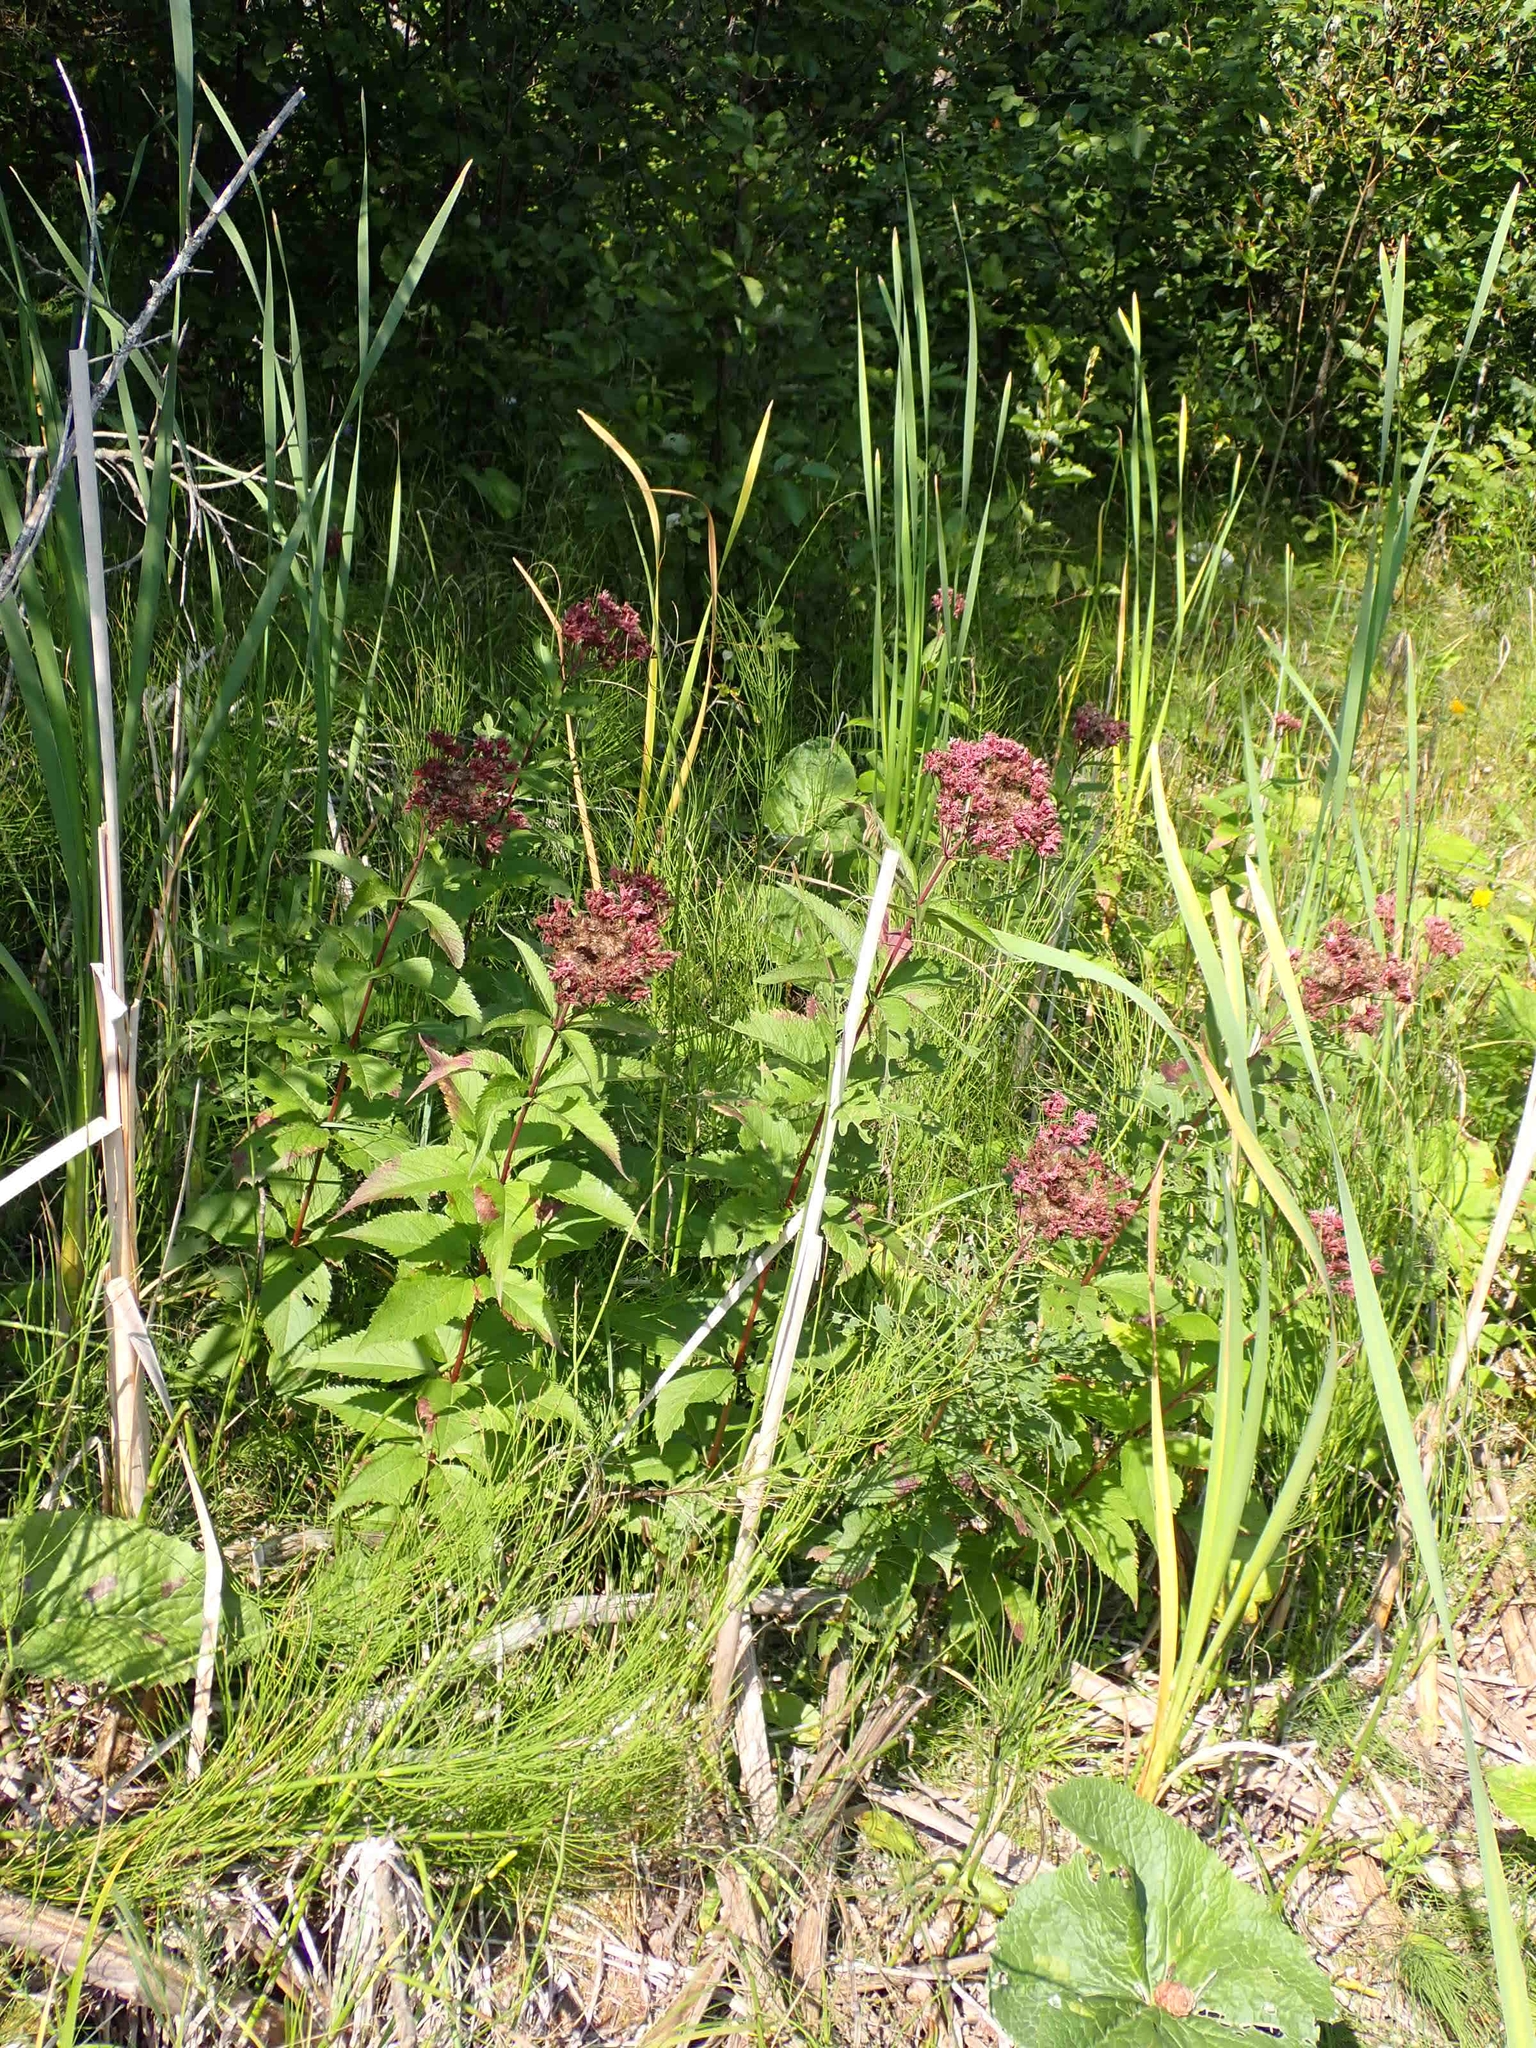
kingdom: Plantae
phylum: Tracheophyta
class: Magnoliopsida
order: Asterales
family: Asteraceae
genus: Eutrochium
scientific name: Eutrochium maculatum
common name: Spotted joe pye weed
